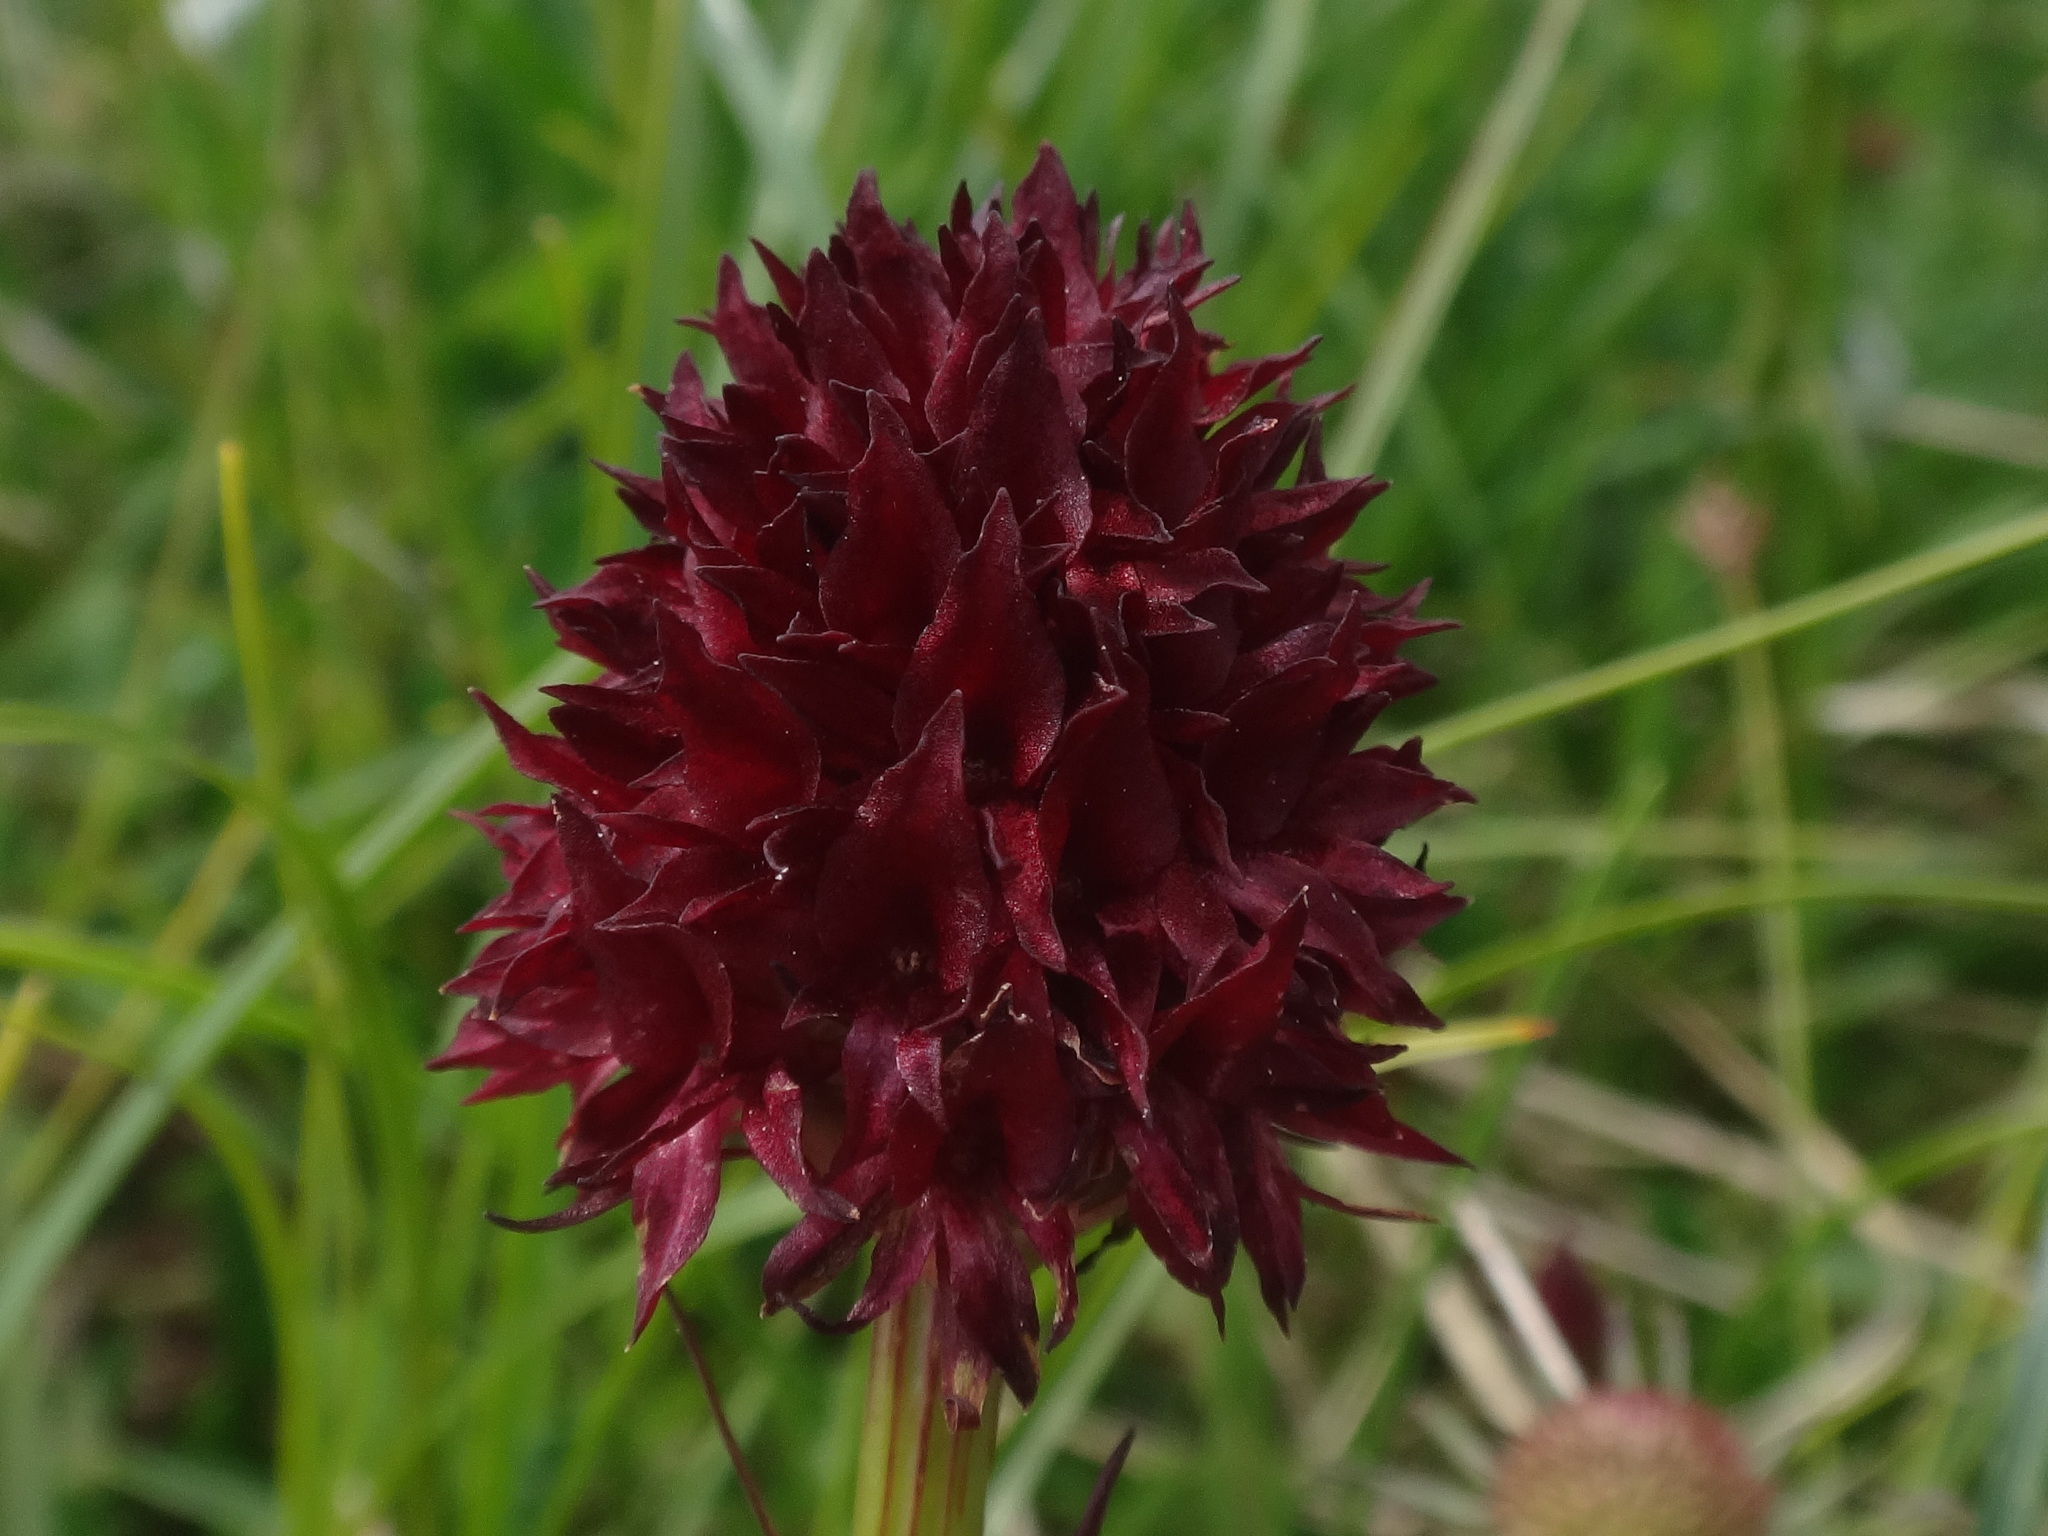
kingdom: Plantae
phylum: Tracheophyta
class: Liliopsida
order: Asparagales
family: Orchidaceae
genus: Gymnadenia
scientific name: Gymnadenia rhellicani
